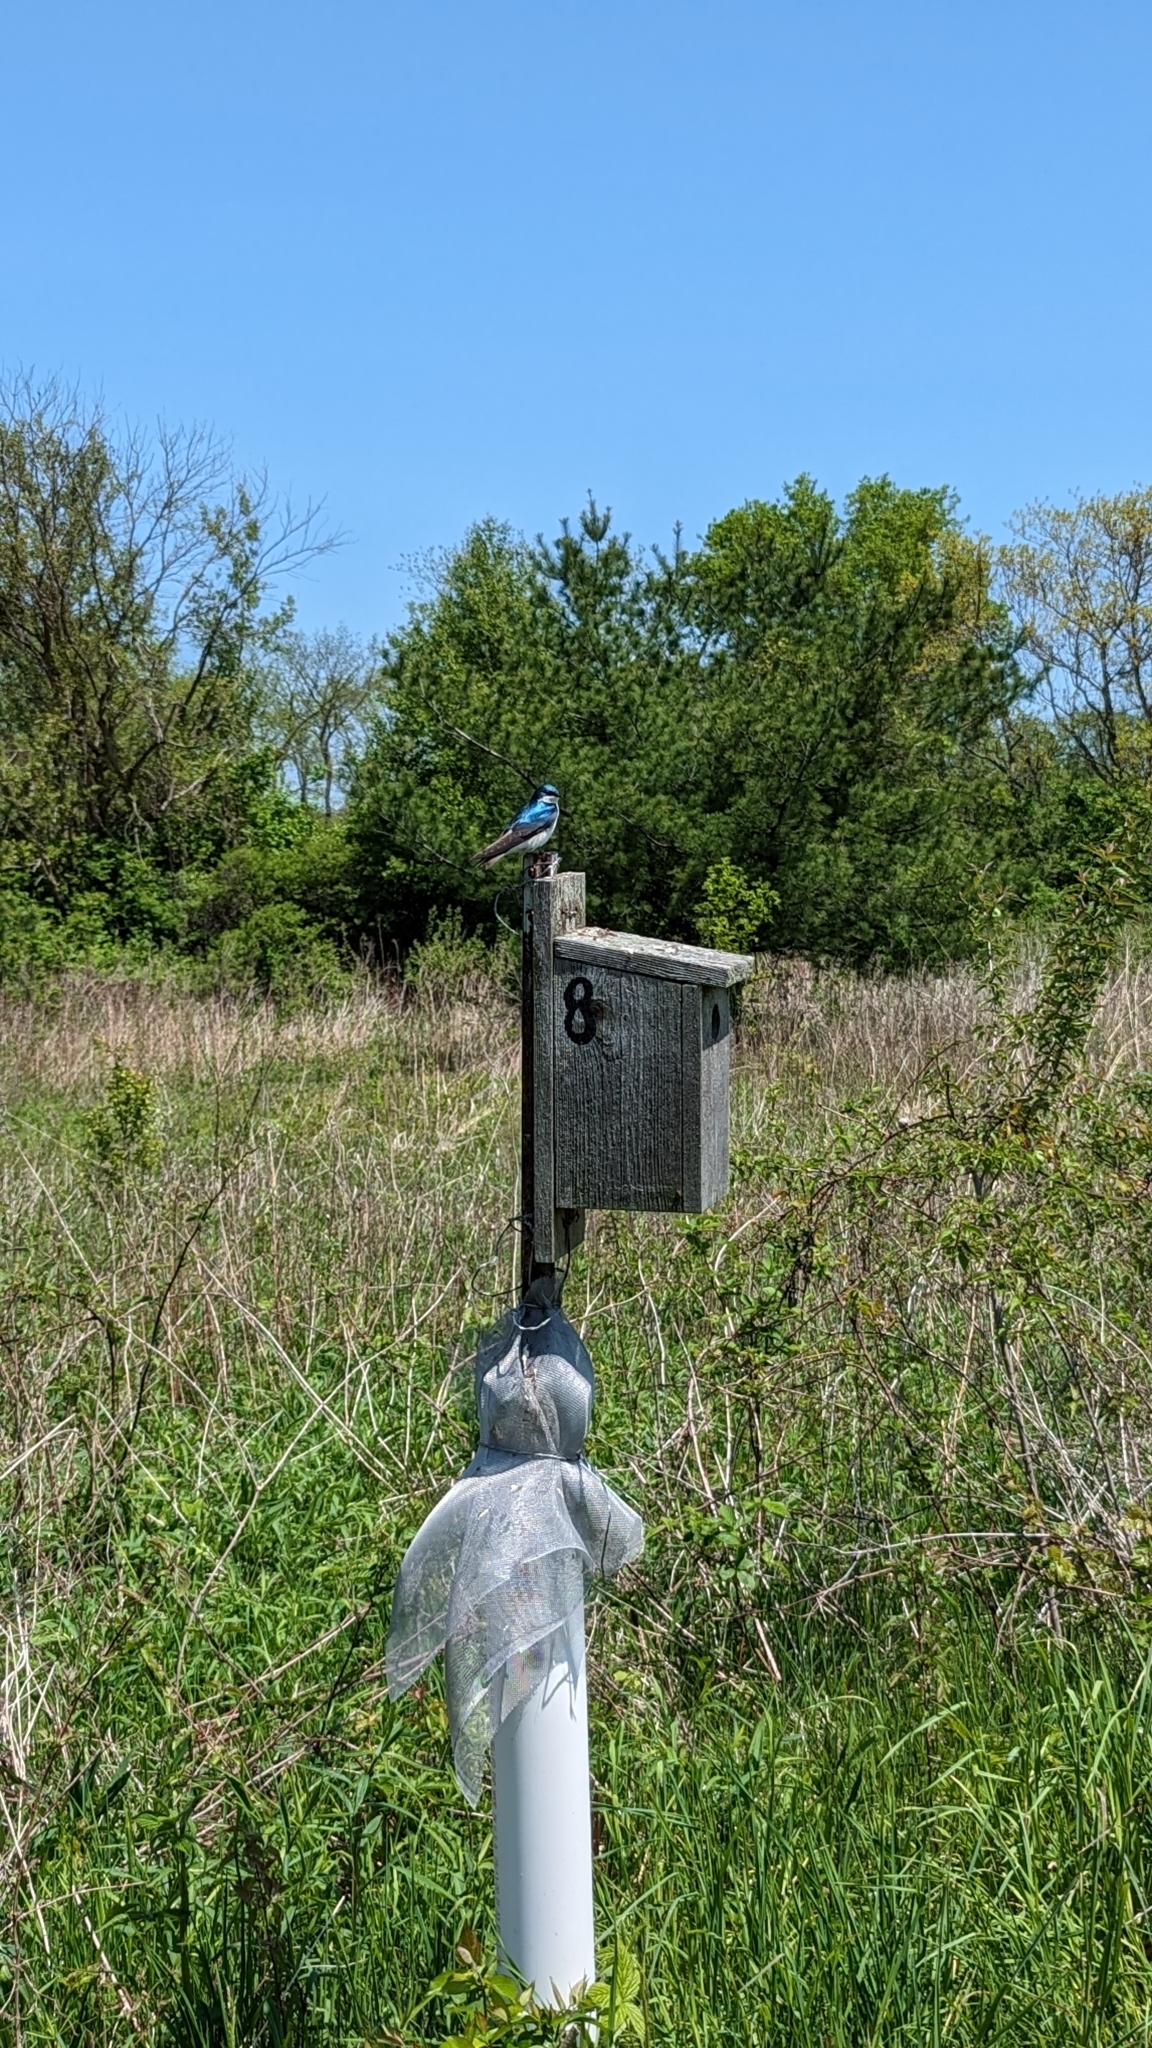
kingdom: Animalia
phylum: Chordata
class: Aves
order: Passeriformes
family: Hirundinidae
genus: Tachycineta
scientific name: Tachycineta bicolor
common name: Tree swallow
